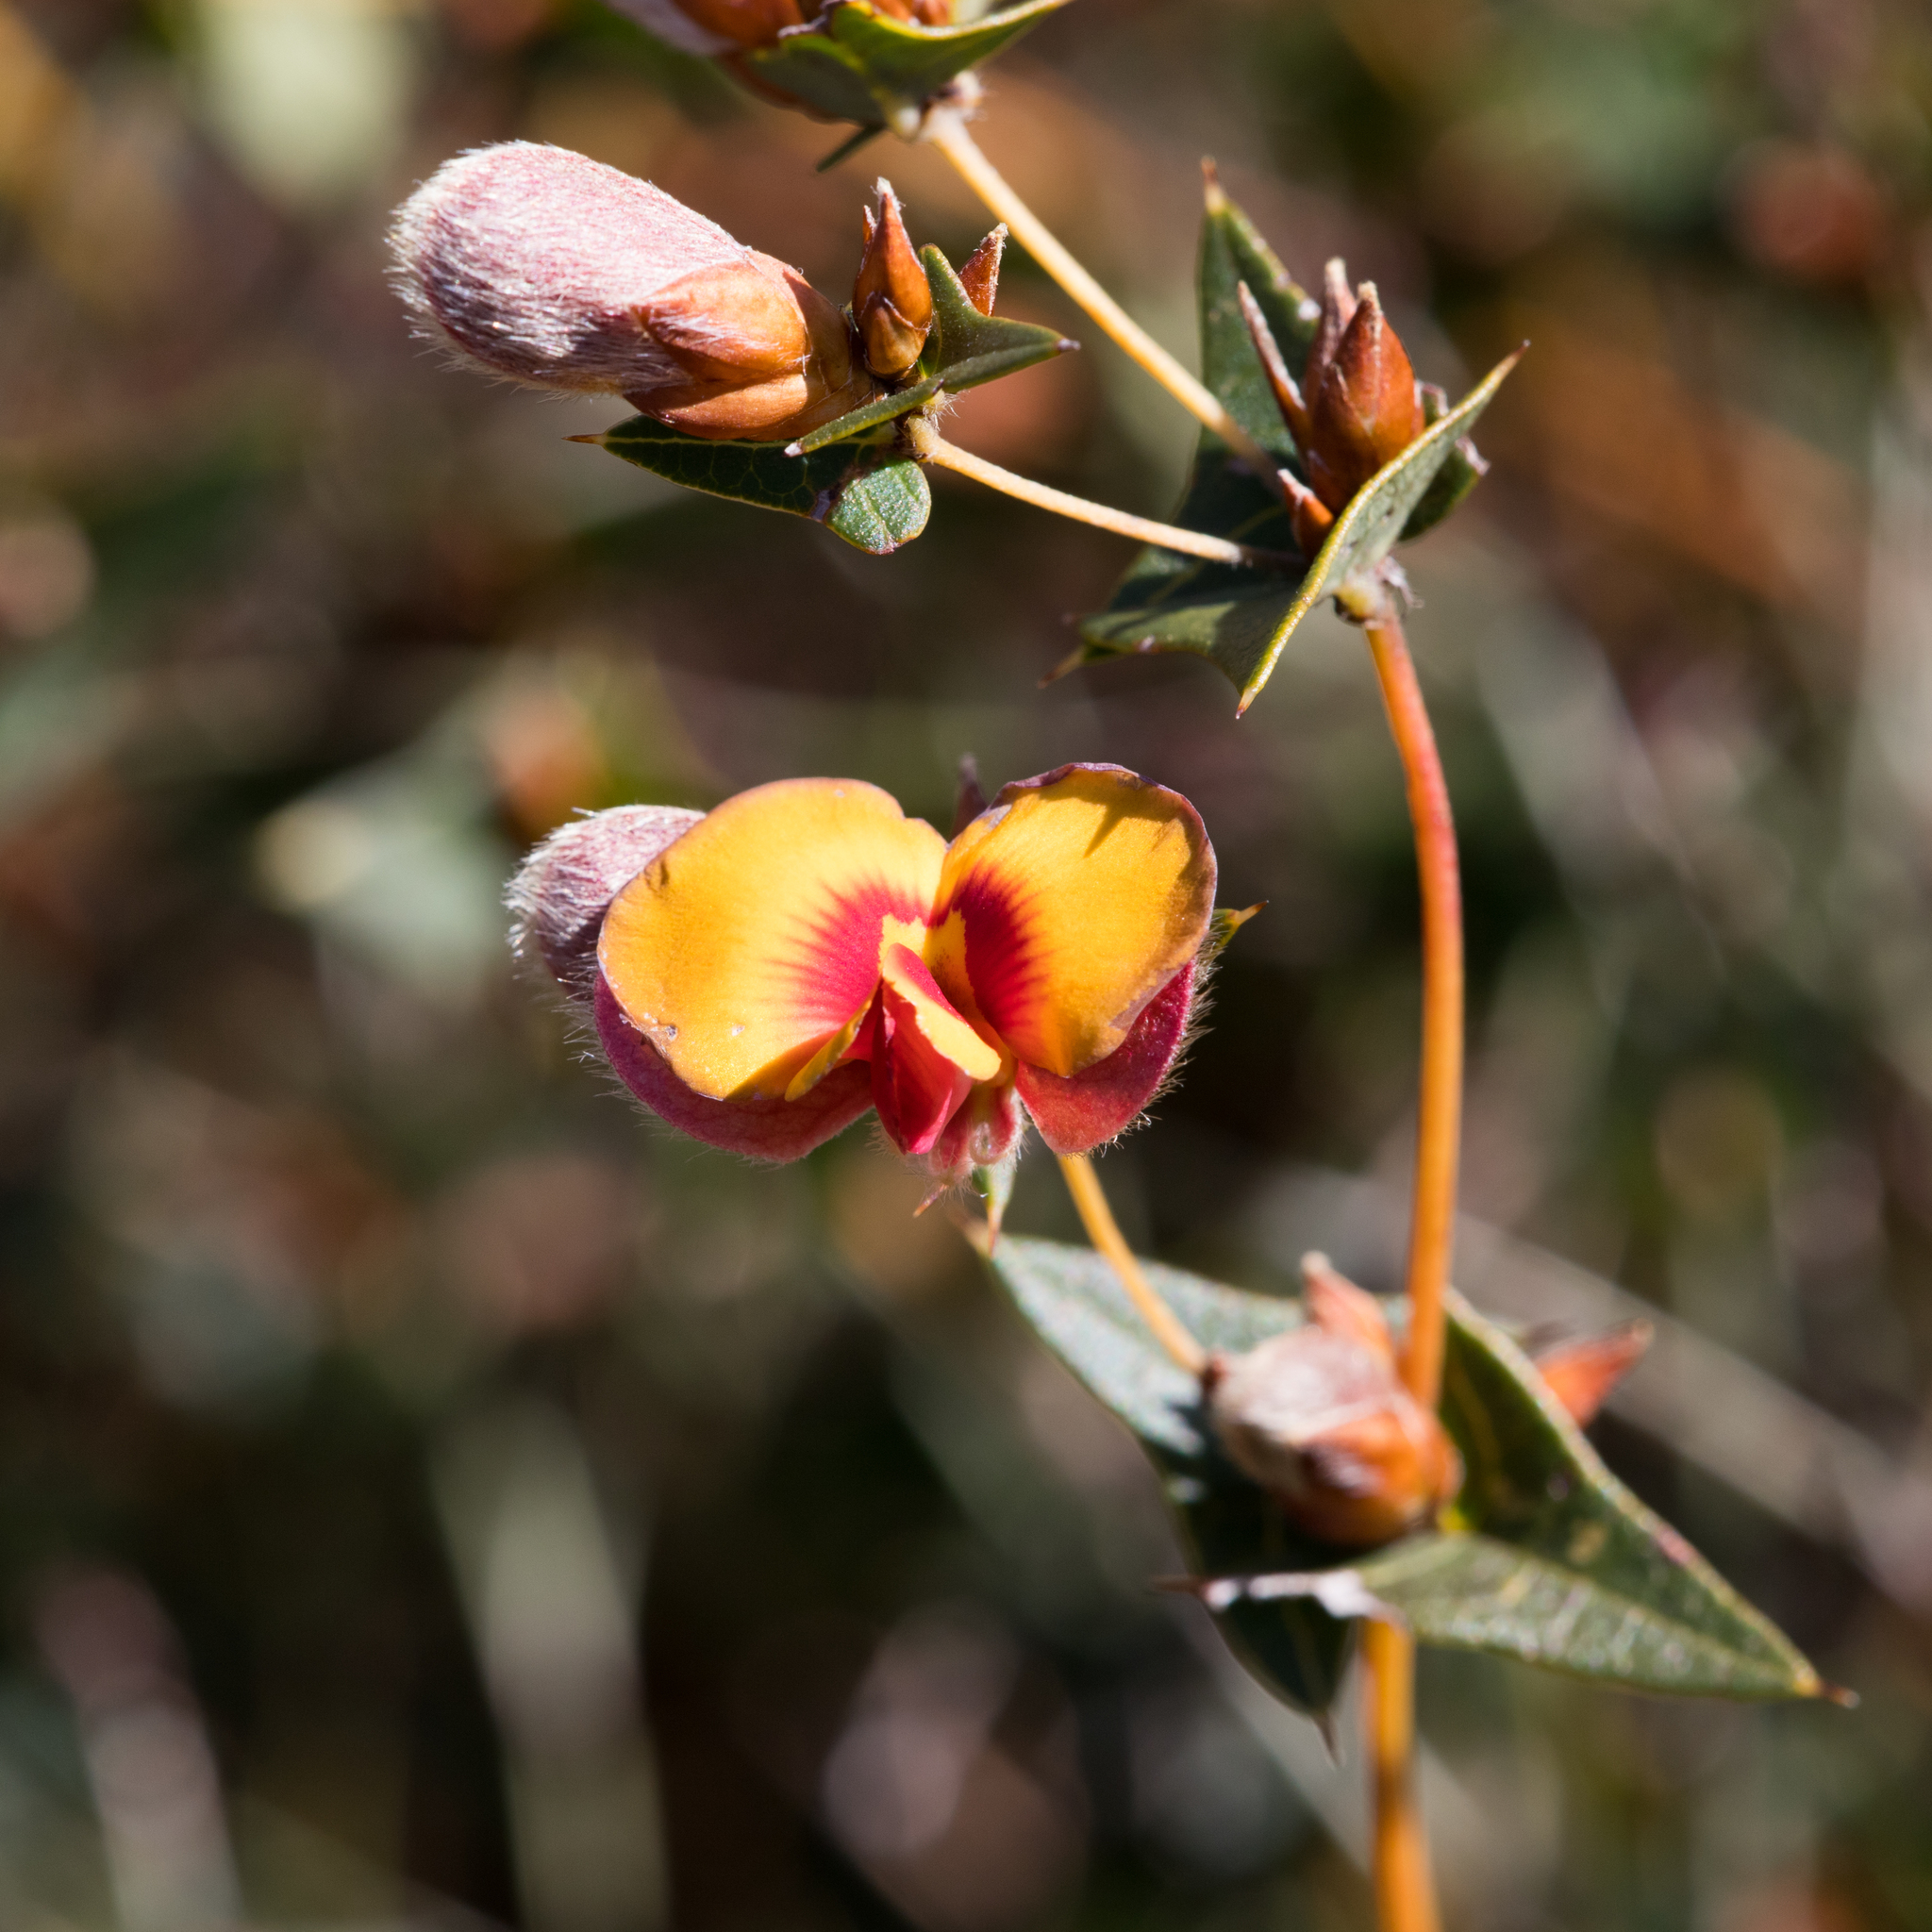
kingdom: Plantae
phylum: Tracheophyta
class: Magnoliopsida
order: Fabales
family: Fabaceae
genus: Platylobium
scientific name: Platylobium obtusangulum
